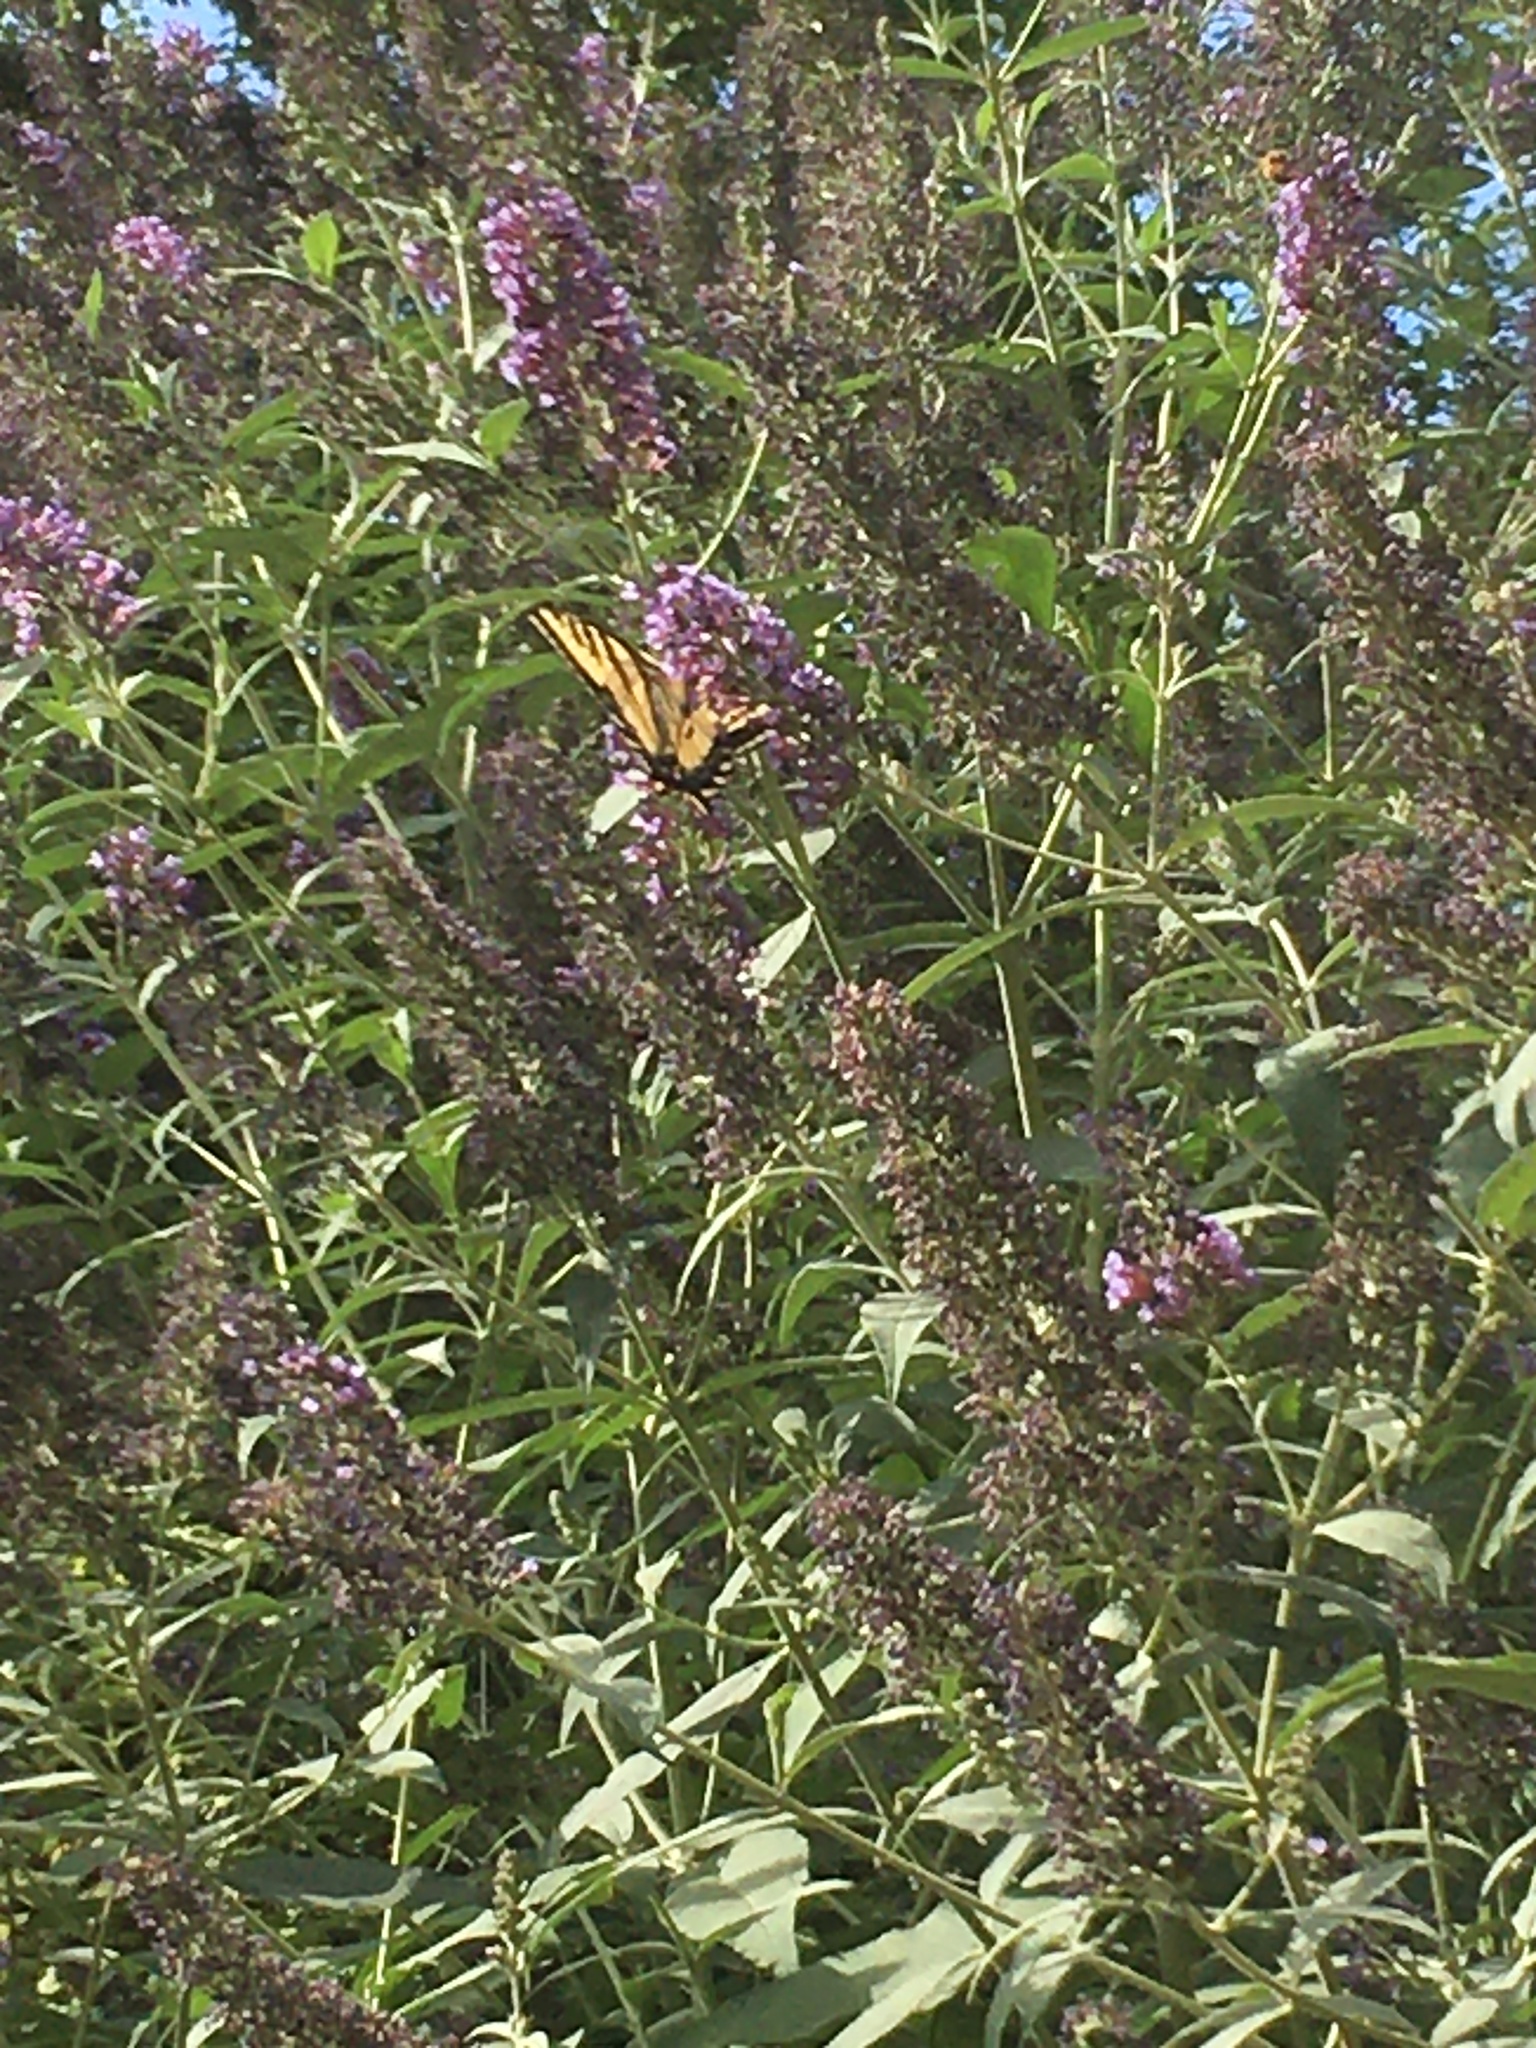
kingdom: Animalia
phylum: Arthropoda
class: Insecta
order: Lepidoptera
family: Papilionidae
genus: Papilio
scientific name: Papilio rutulus
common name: Western tiger swallowtail
